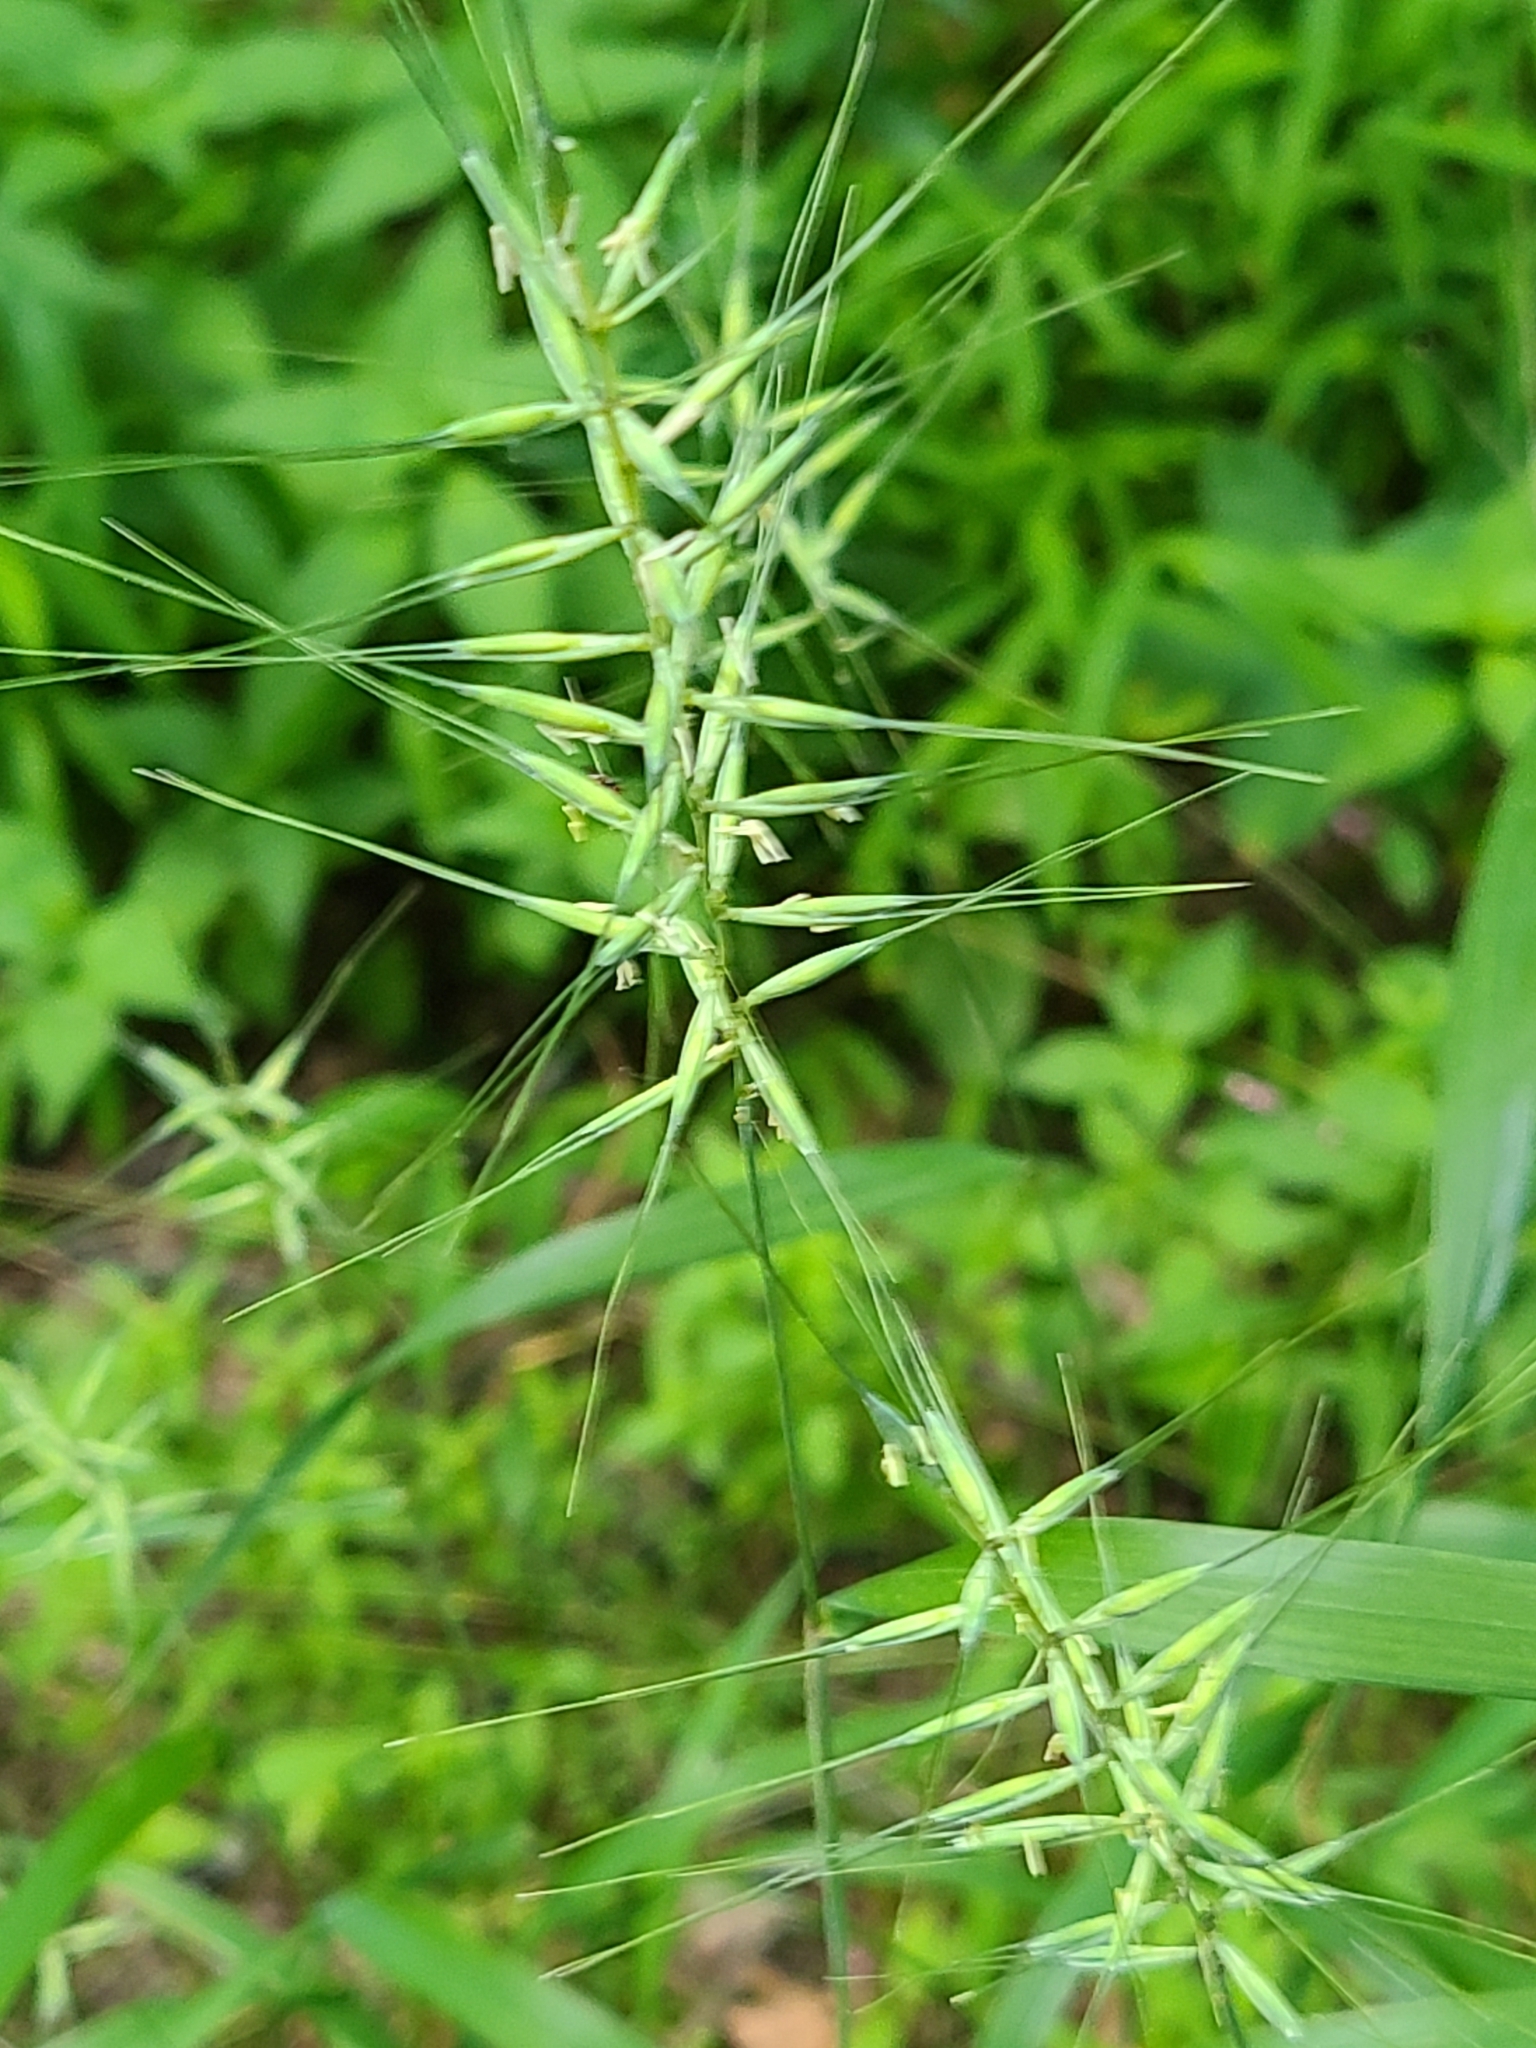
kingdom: Plantae
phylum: Tracheophyta
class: Liliopsida
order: Poales
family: Poaceae
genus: Elymus
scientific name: Elymus hystrix
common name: Bottlebrush grass
